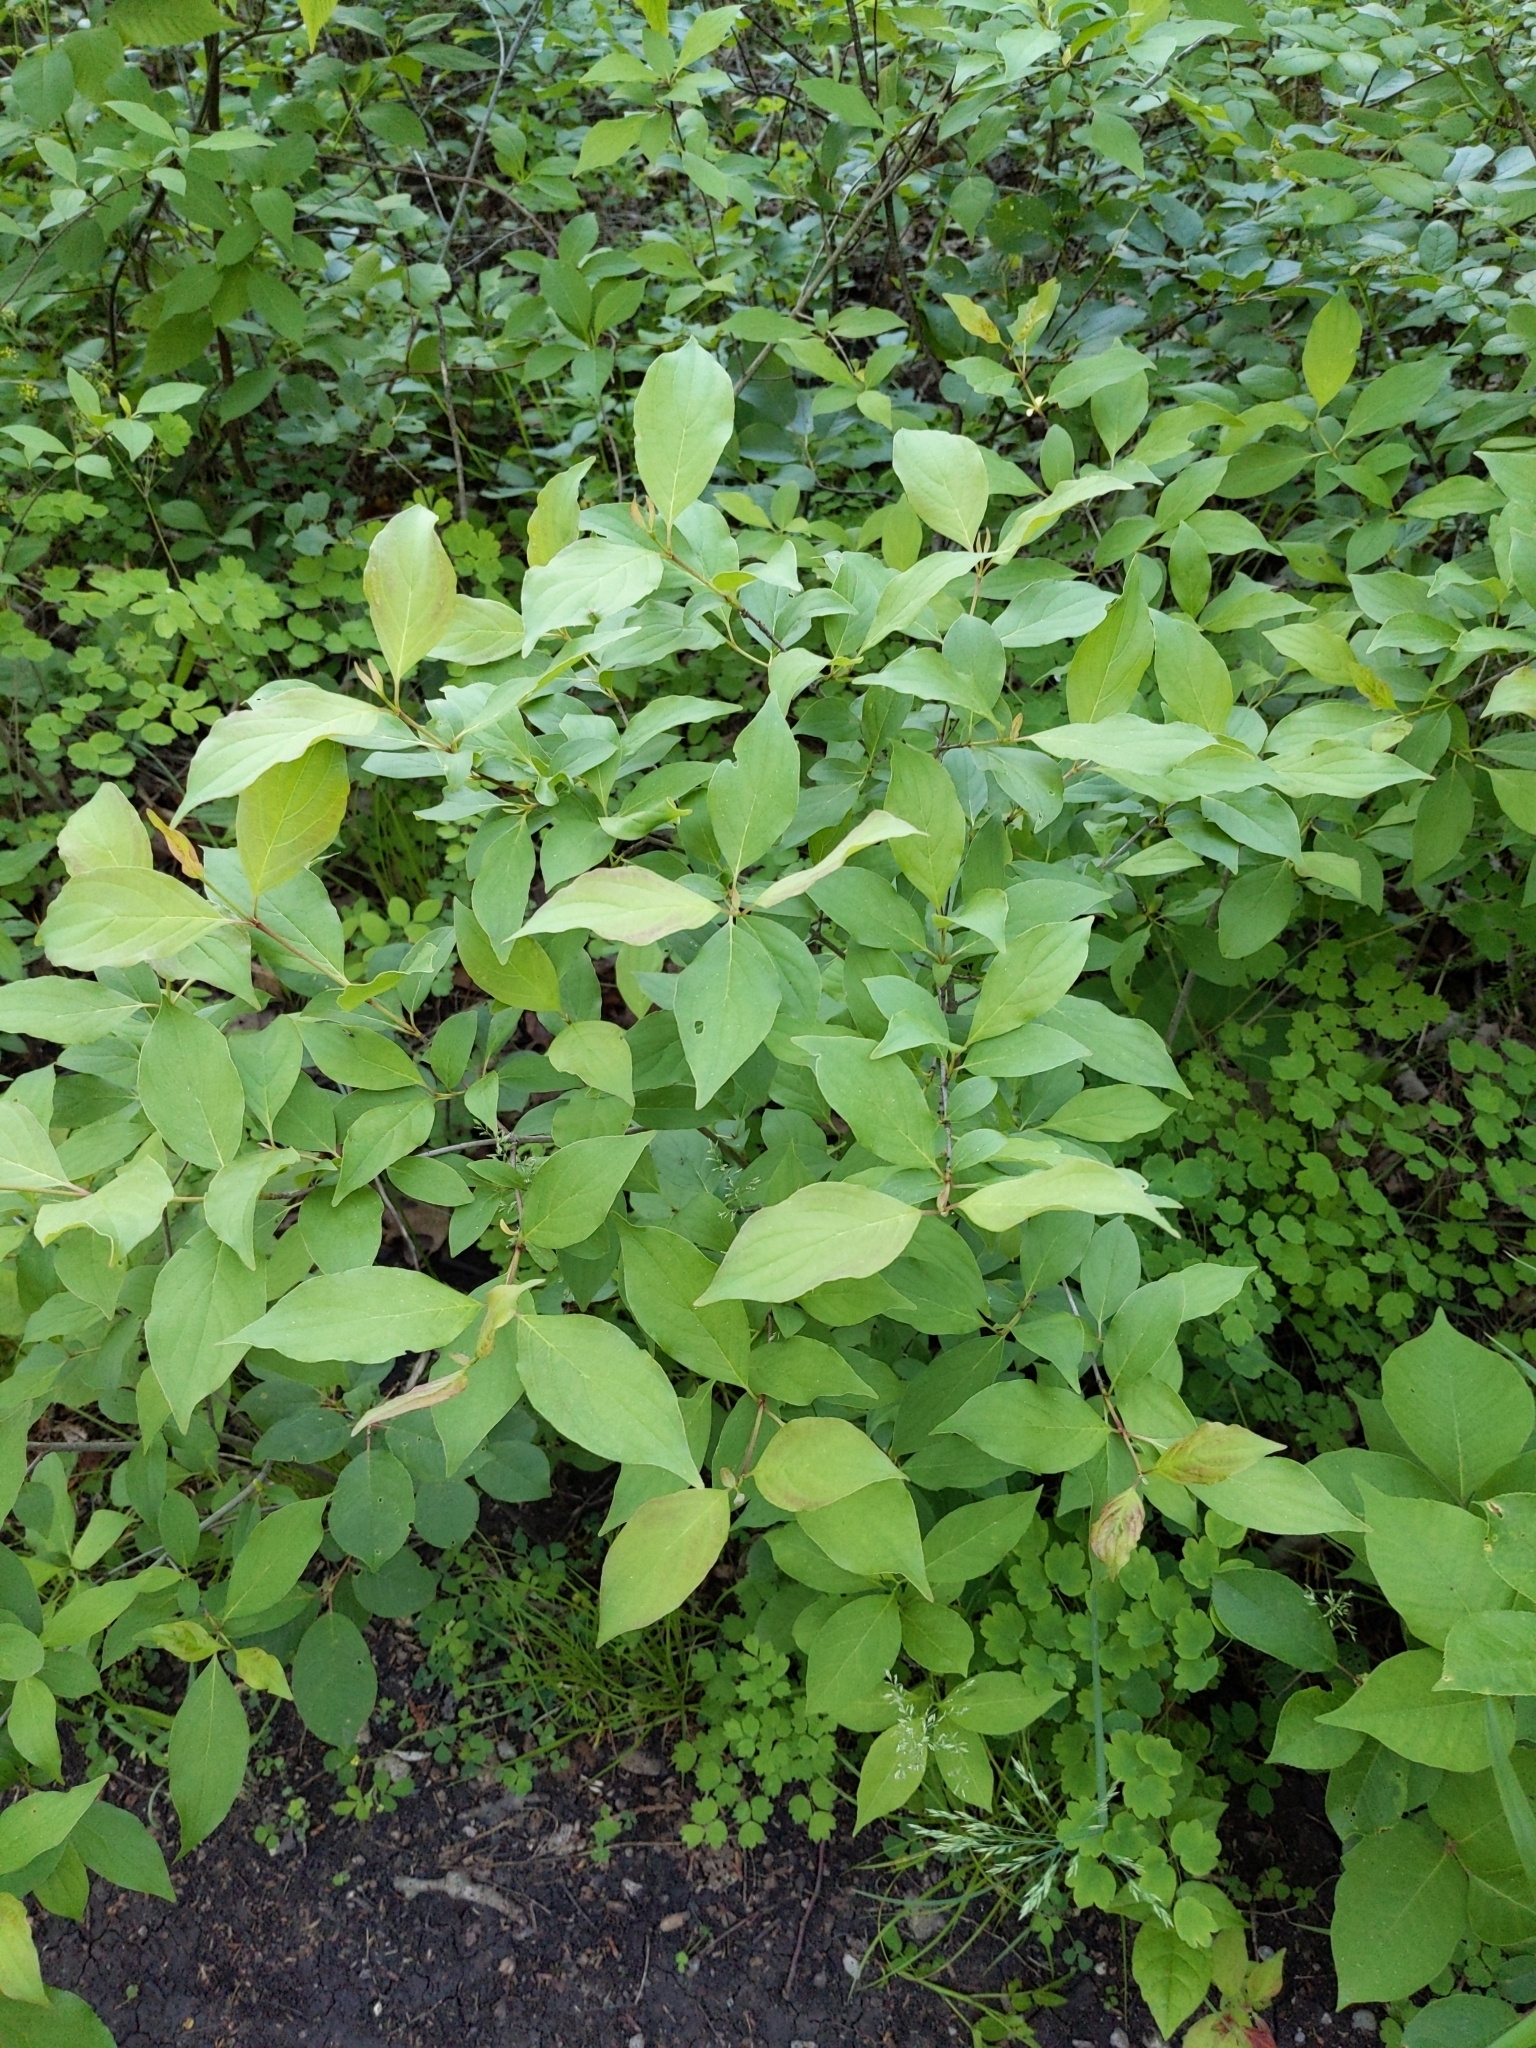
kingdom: Plantae
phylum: Tracheophyta
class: Magnoliopsida
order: Cornales
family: Cornaceae
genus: Cornus
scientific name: Cornus racemosa
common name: Panicled dogwood
